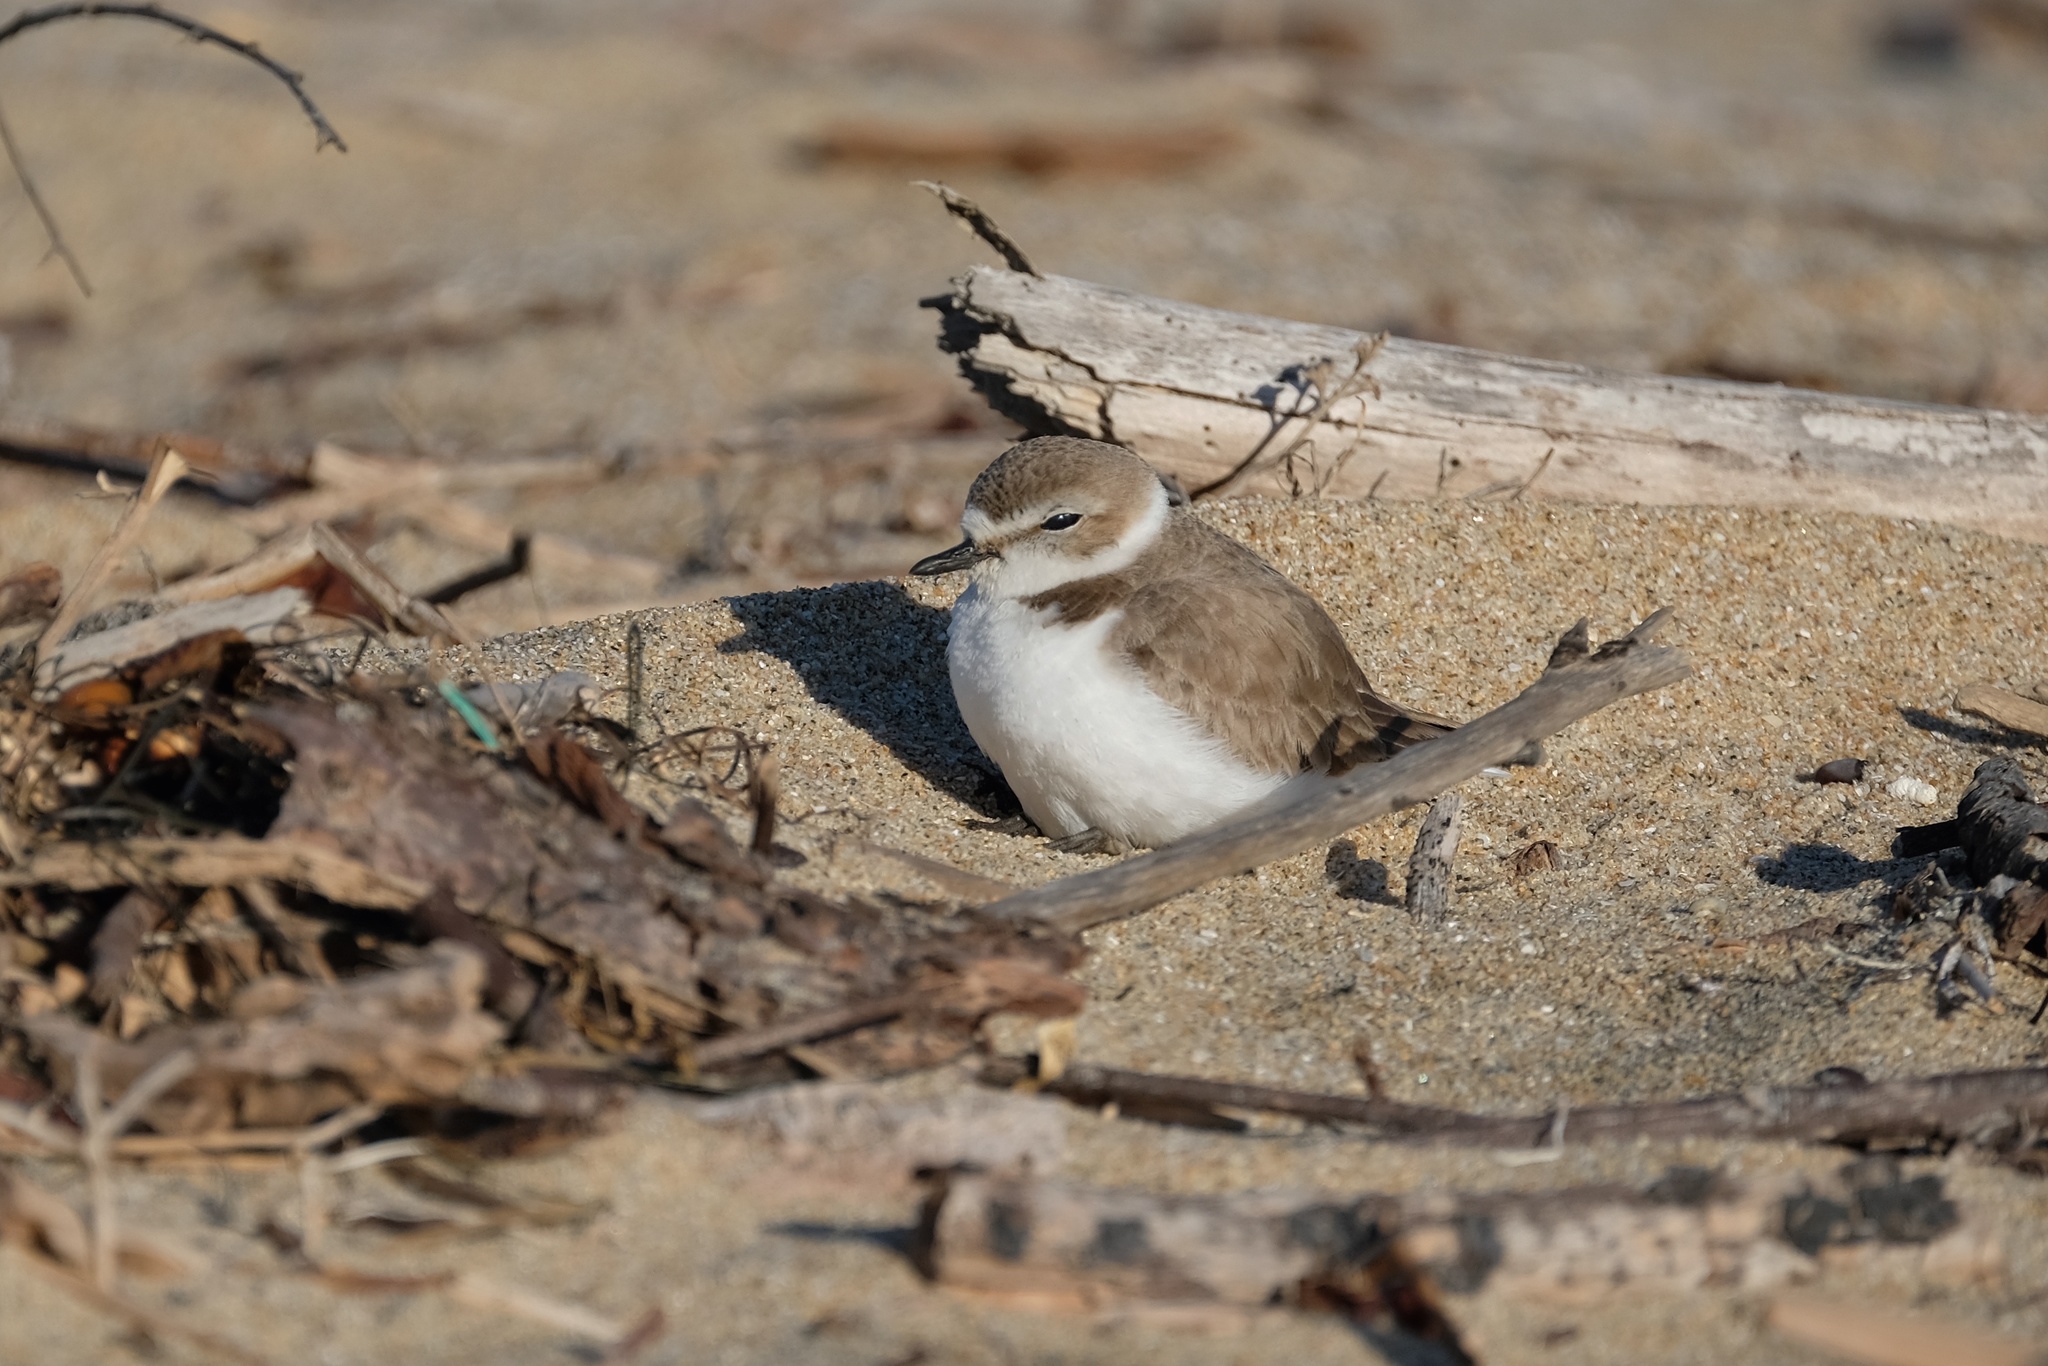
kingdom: Animalia
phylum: Chordata
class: Aves
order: Charadriiformes
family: Charadriidae
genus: Anarhynchus
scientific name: Anarhynchus
